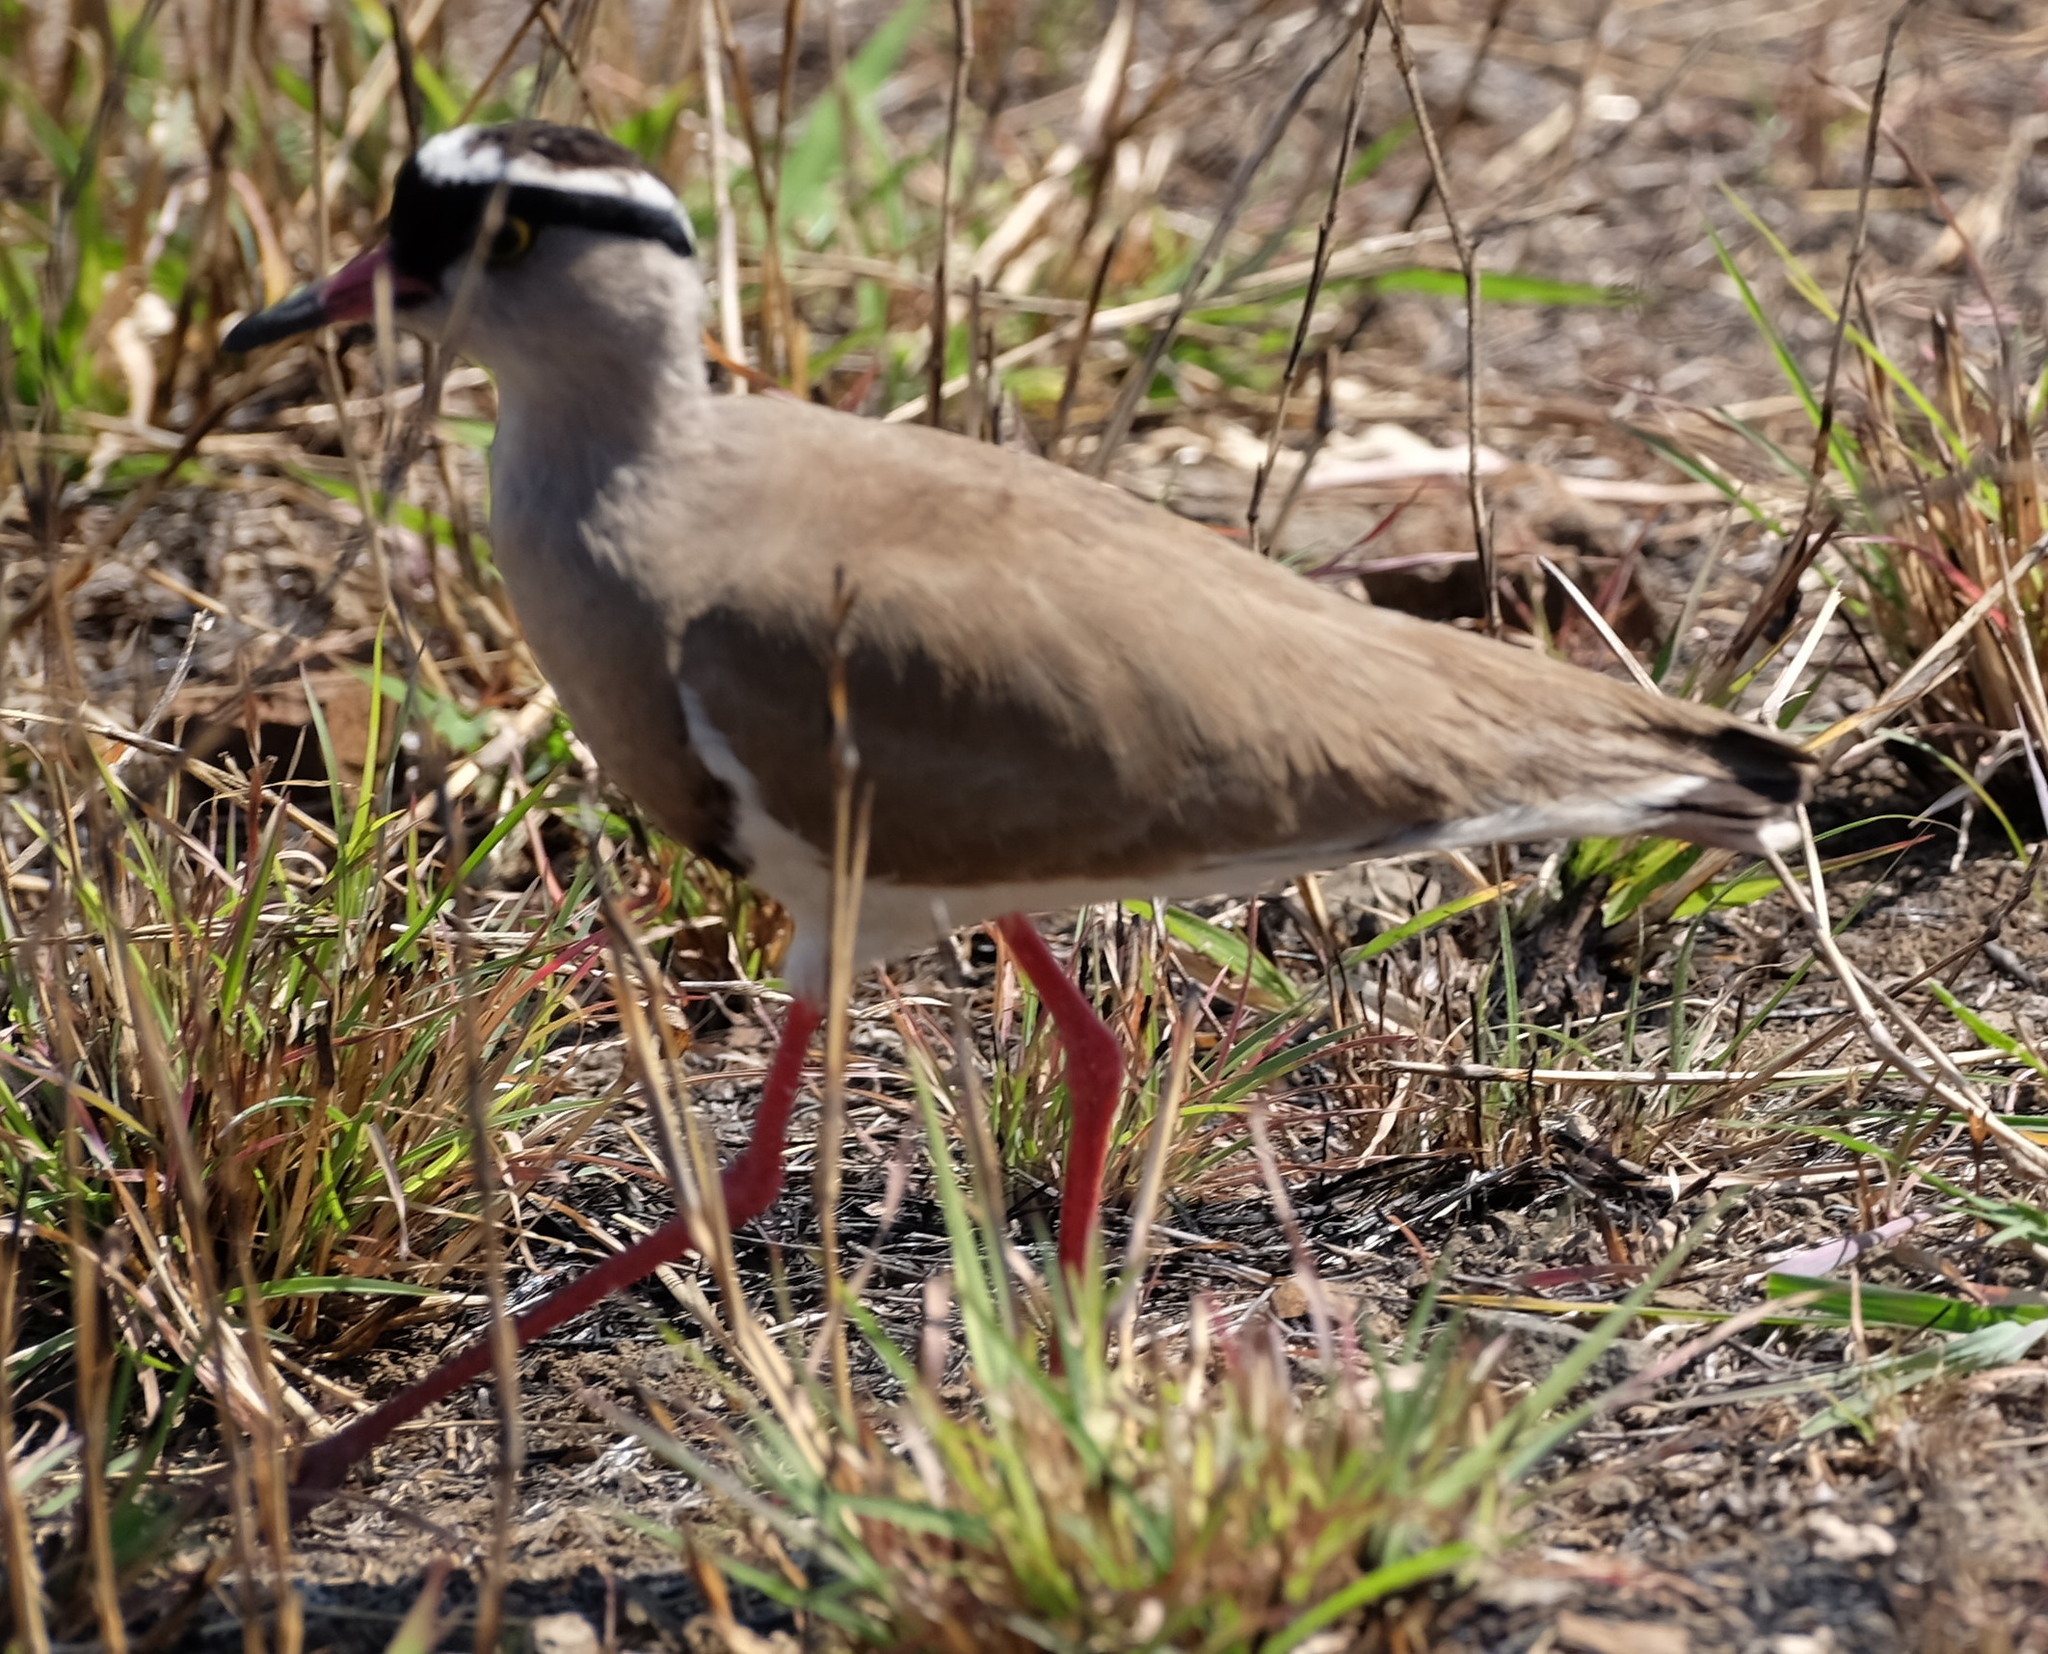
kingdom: Animalia
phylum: Chordata
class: Aves
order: Charadriiformes
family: Charadriidae
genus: Vanellus
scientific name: Vanellus coronatus
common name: Crowned lapwing
